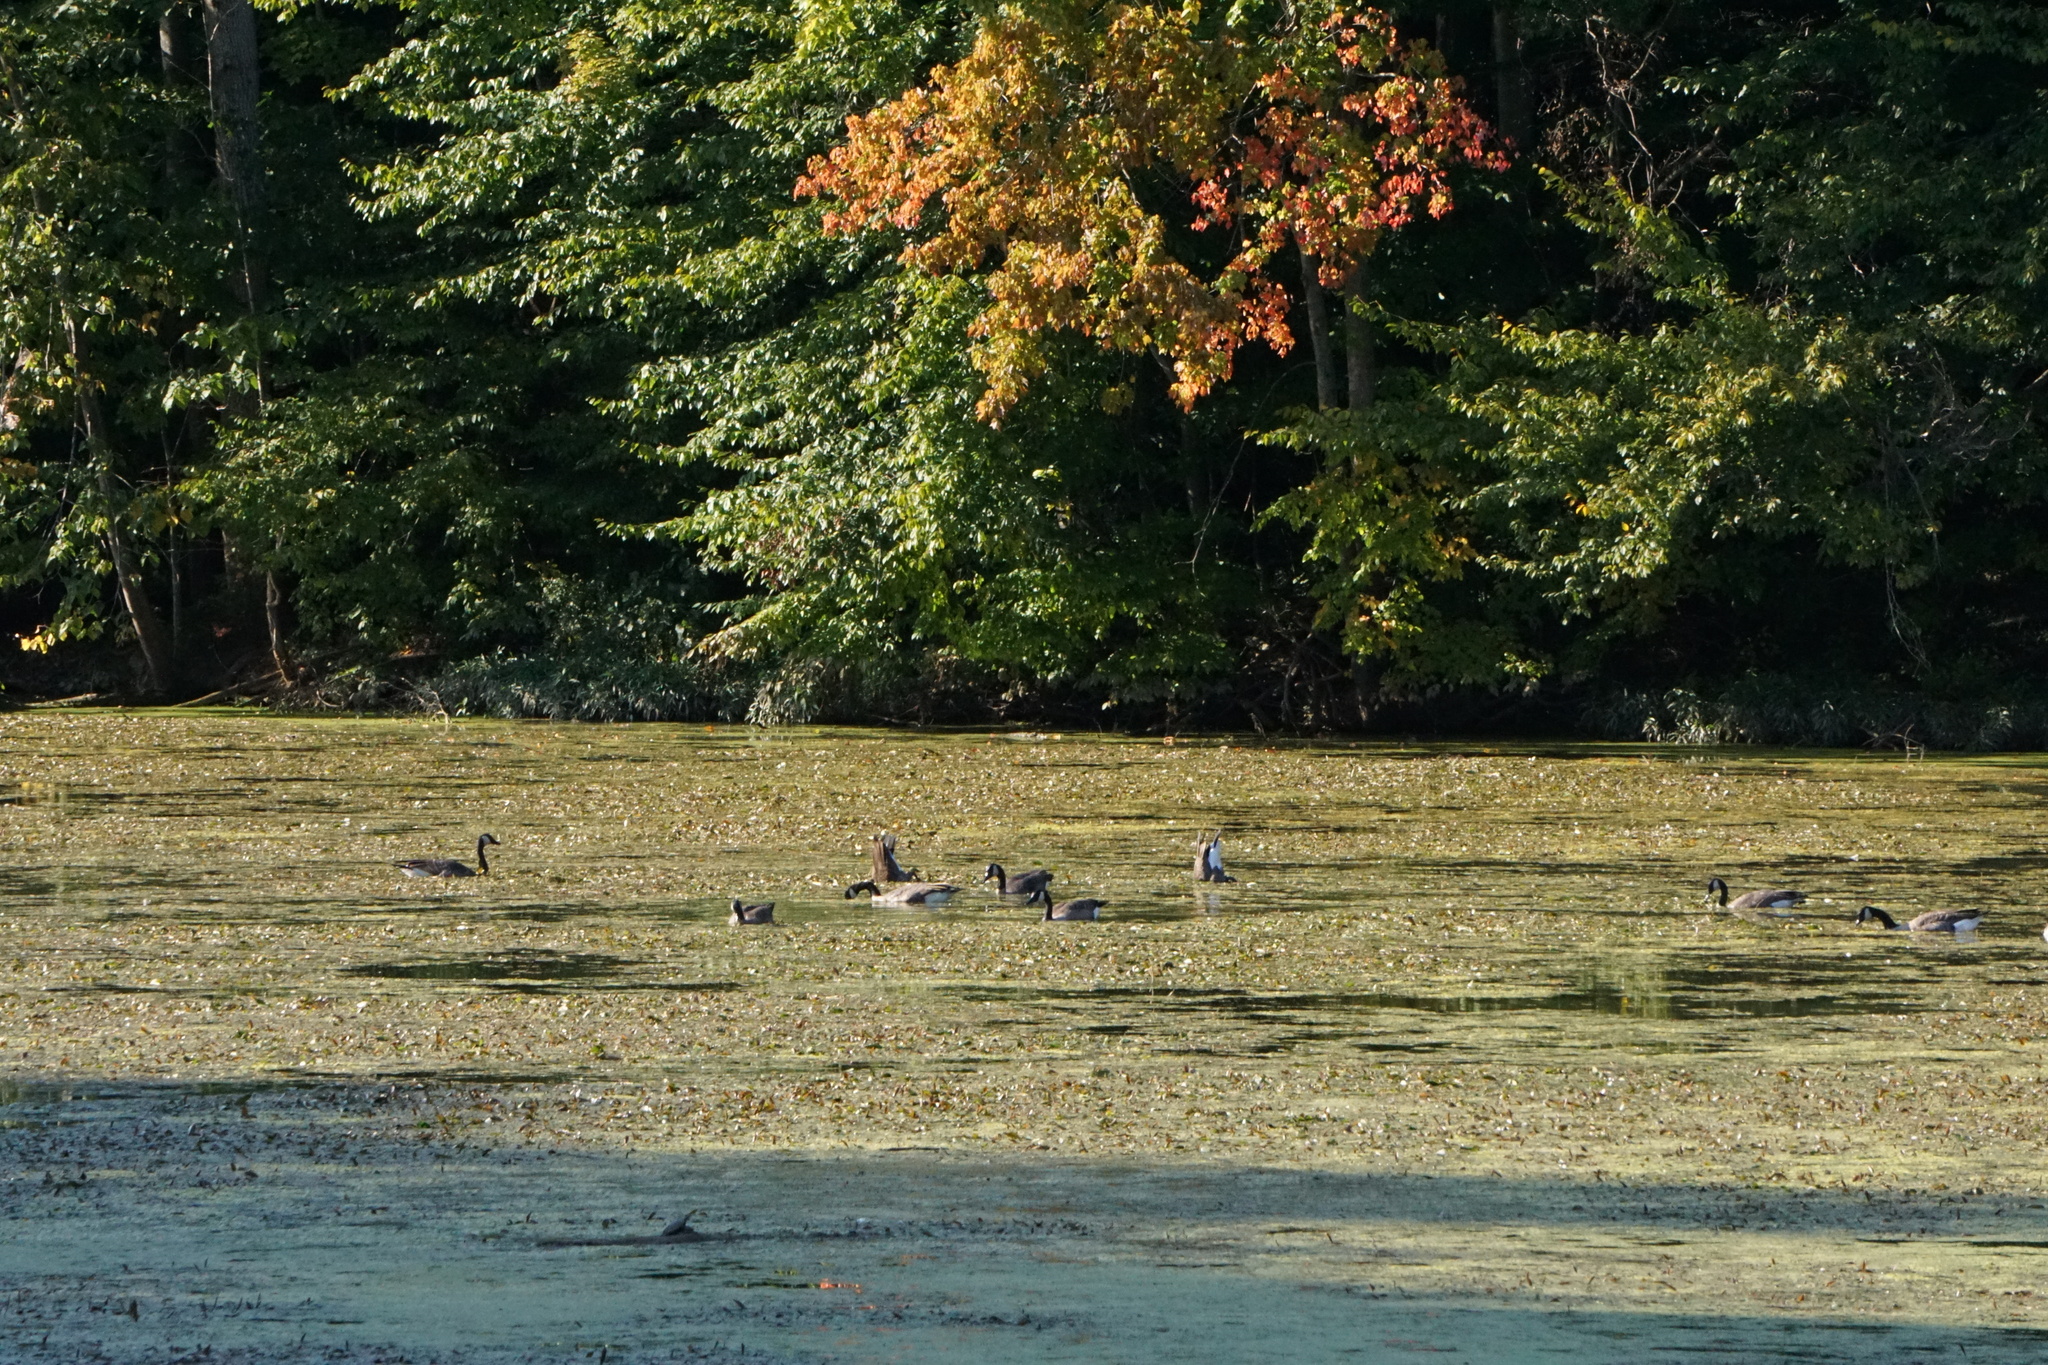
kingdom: Animalia
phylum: Chordata
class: Aves
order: Anseriformes
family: Anatidae
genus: Branta
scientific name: Branta canadensis
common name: Canada goose
